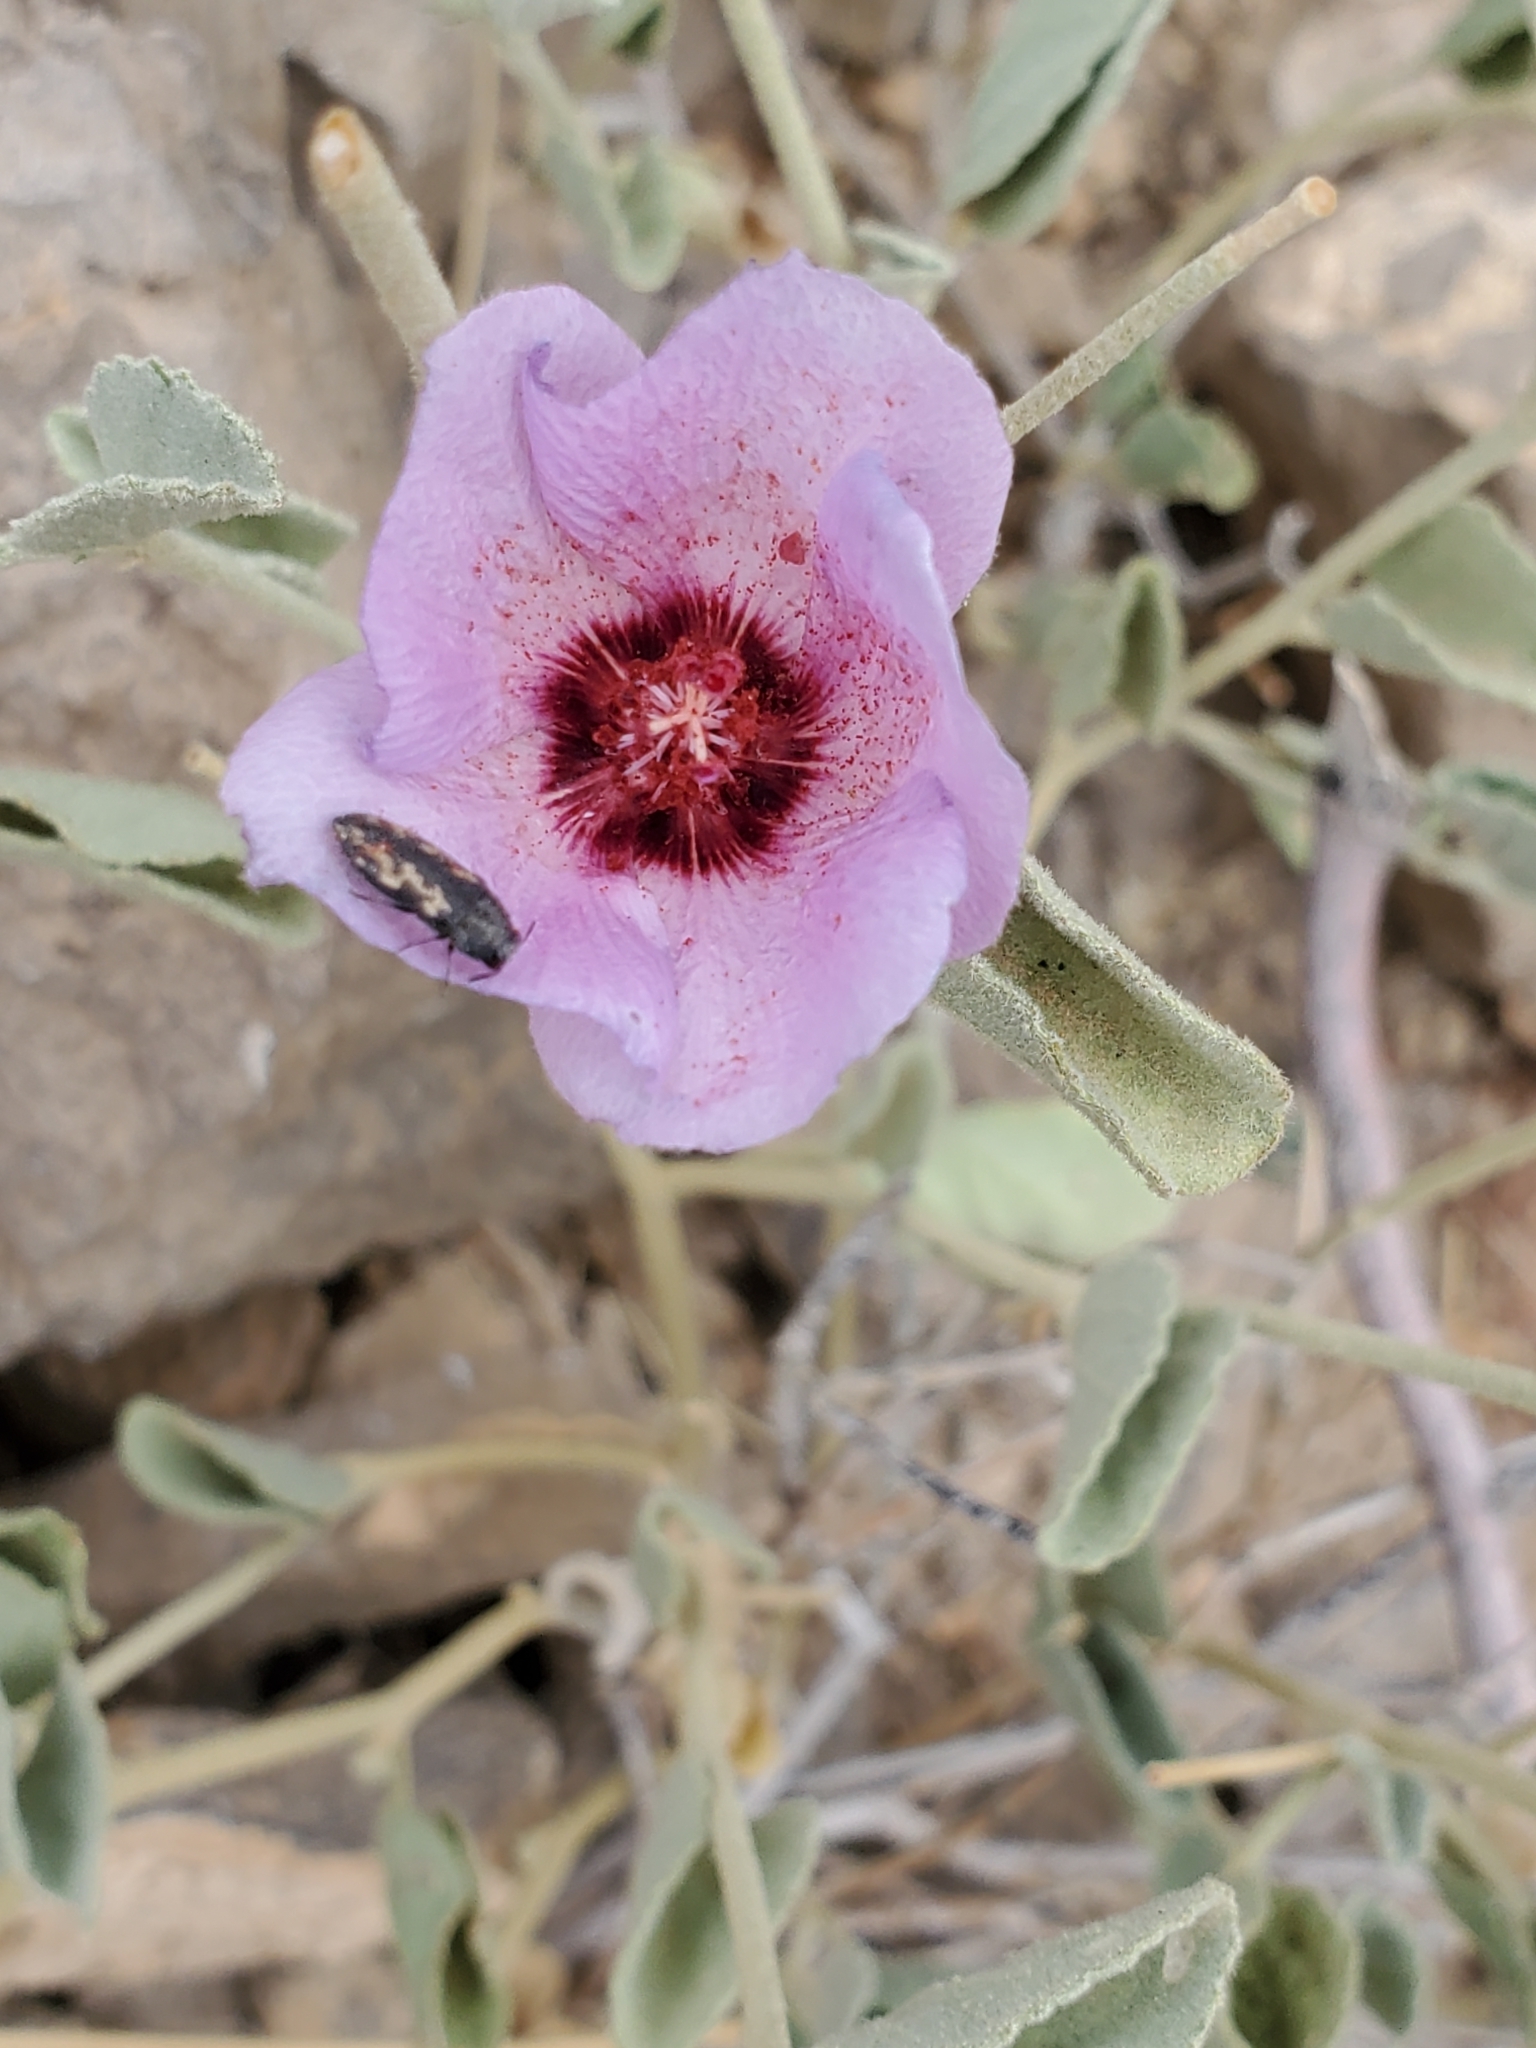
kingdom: Plantae
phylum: Tracheophyta
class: Magnoliopsida
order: Malvales
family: Malvaceae
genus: Hibiscus
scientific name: Hibiscus denudatus
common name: Paleface
